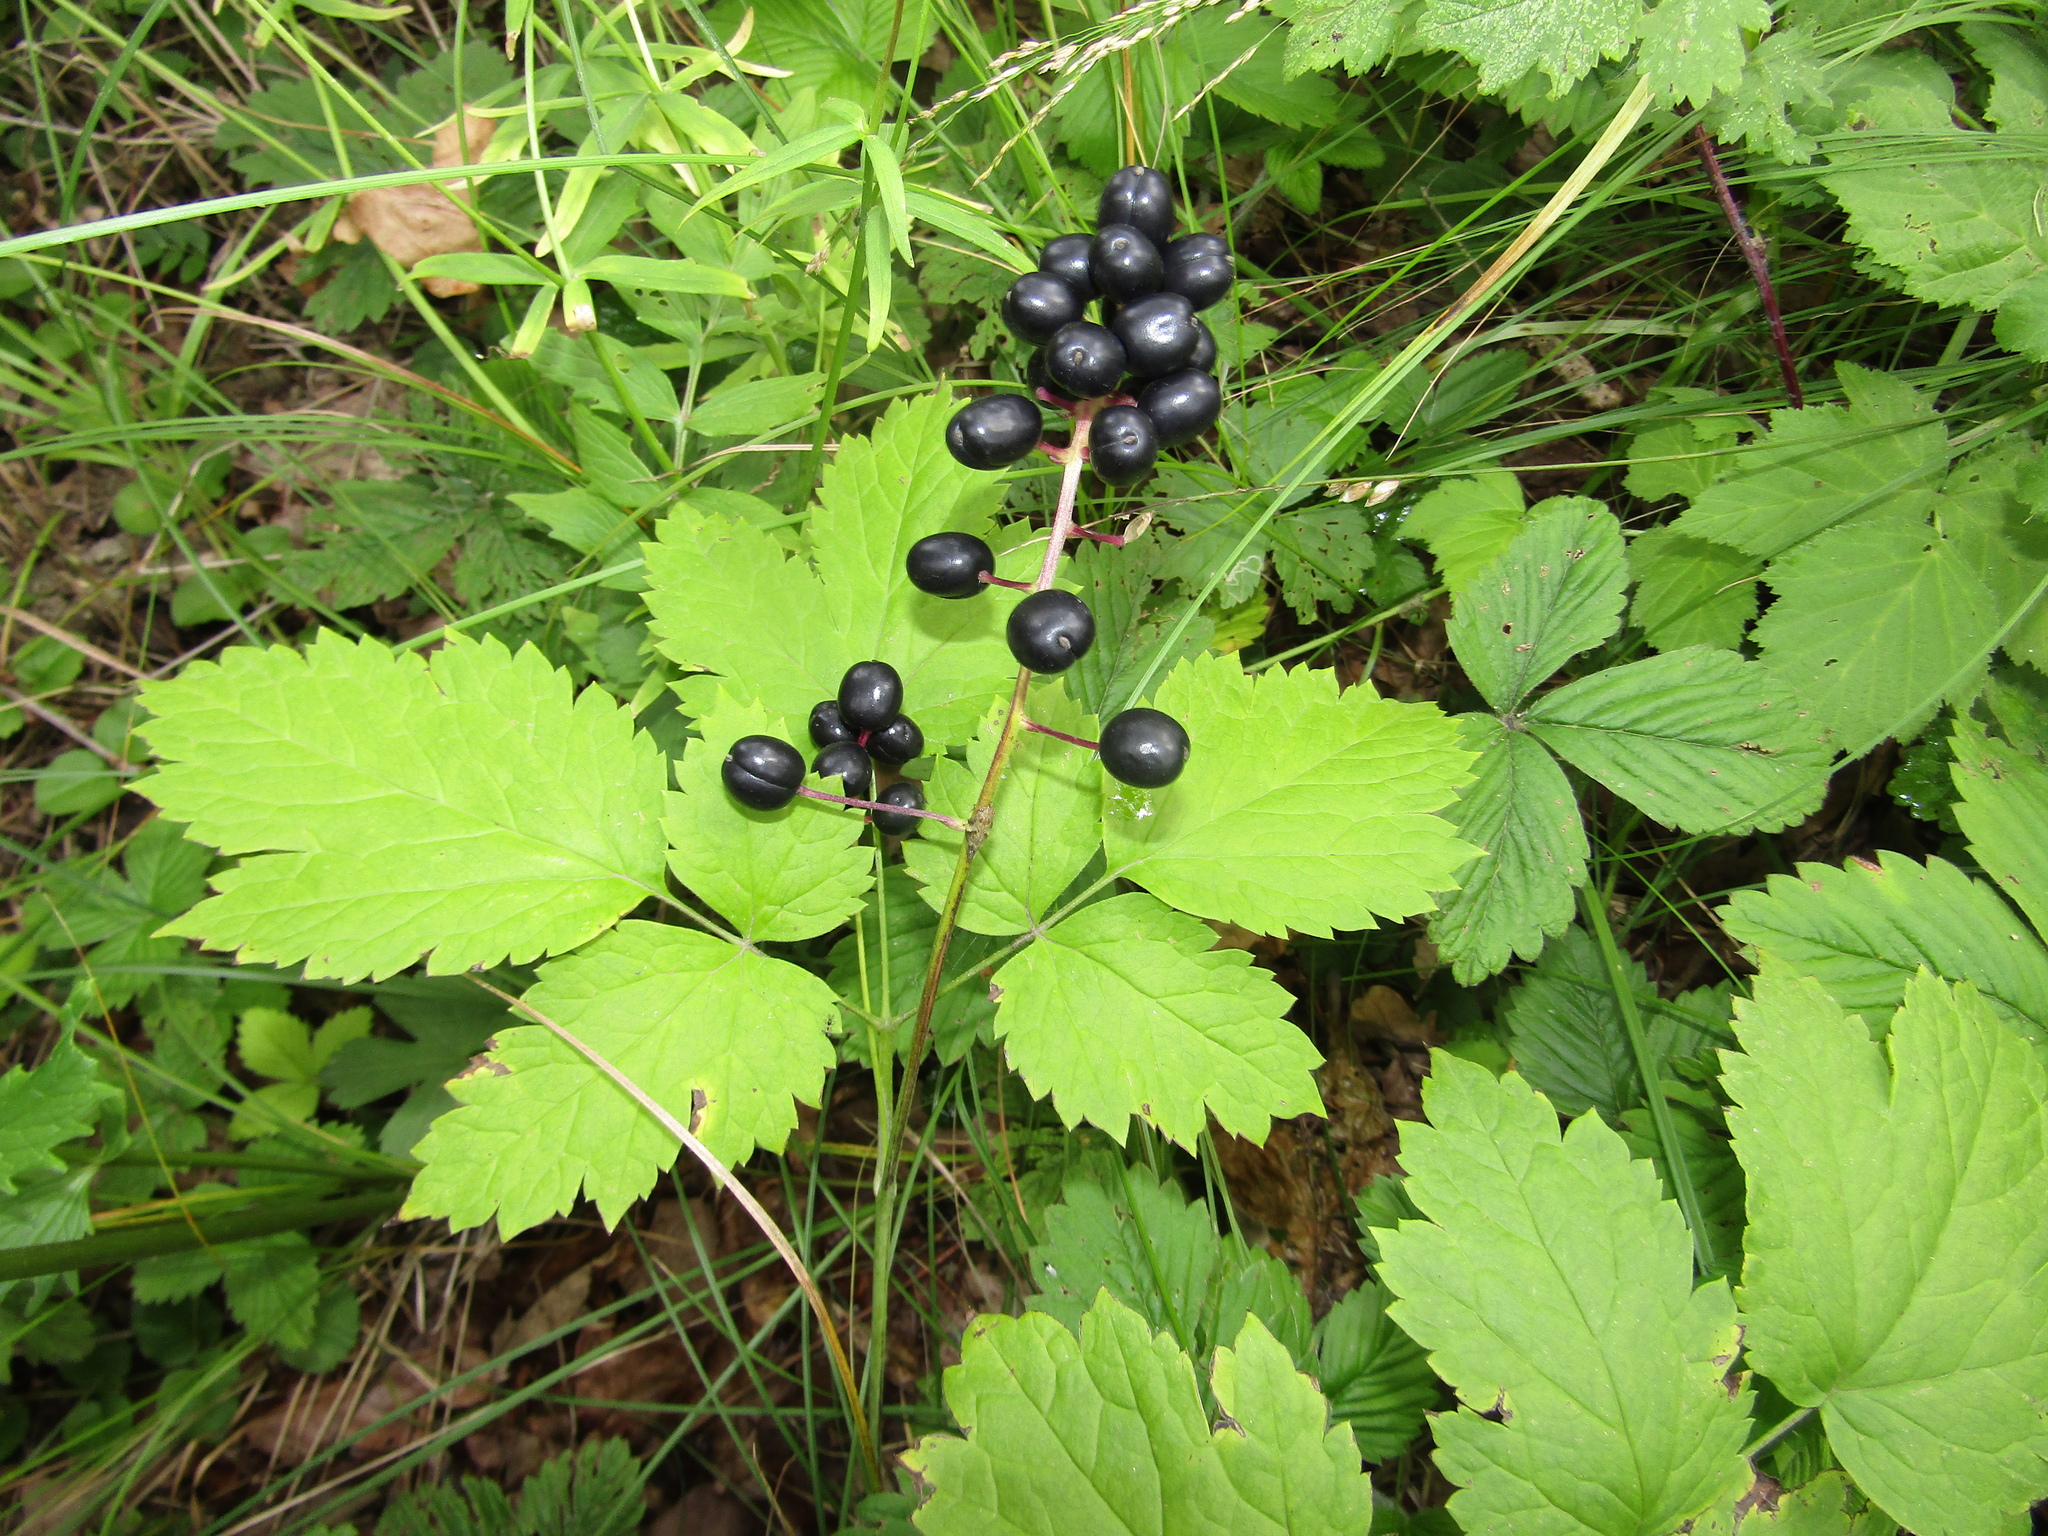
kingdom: Plantae
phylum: Tracheophyta
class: Magnoliopsida
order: Ranunculales
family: Ranunculaceae
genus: Actaea
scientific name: Actaea spicata
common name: Baneberry
